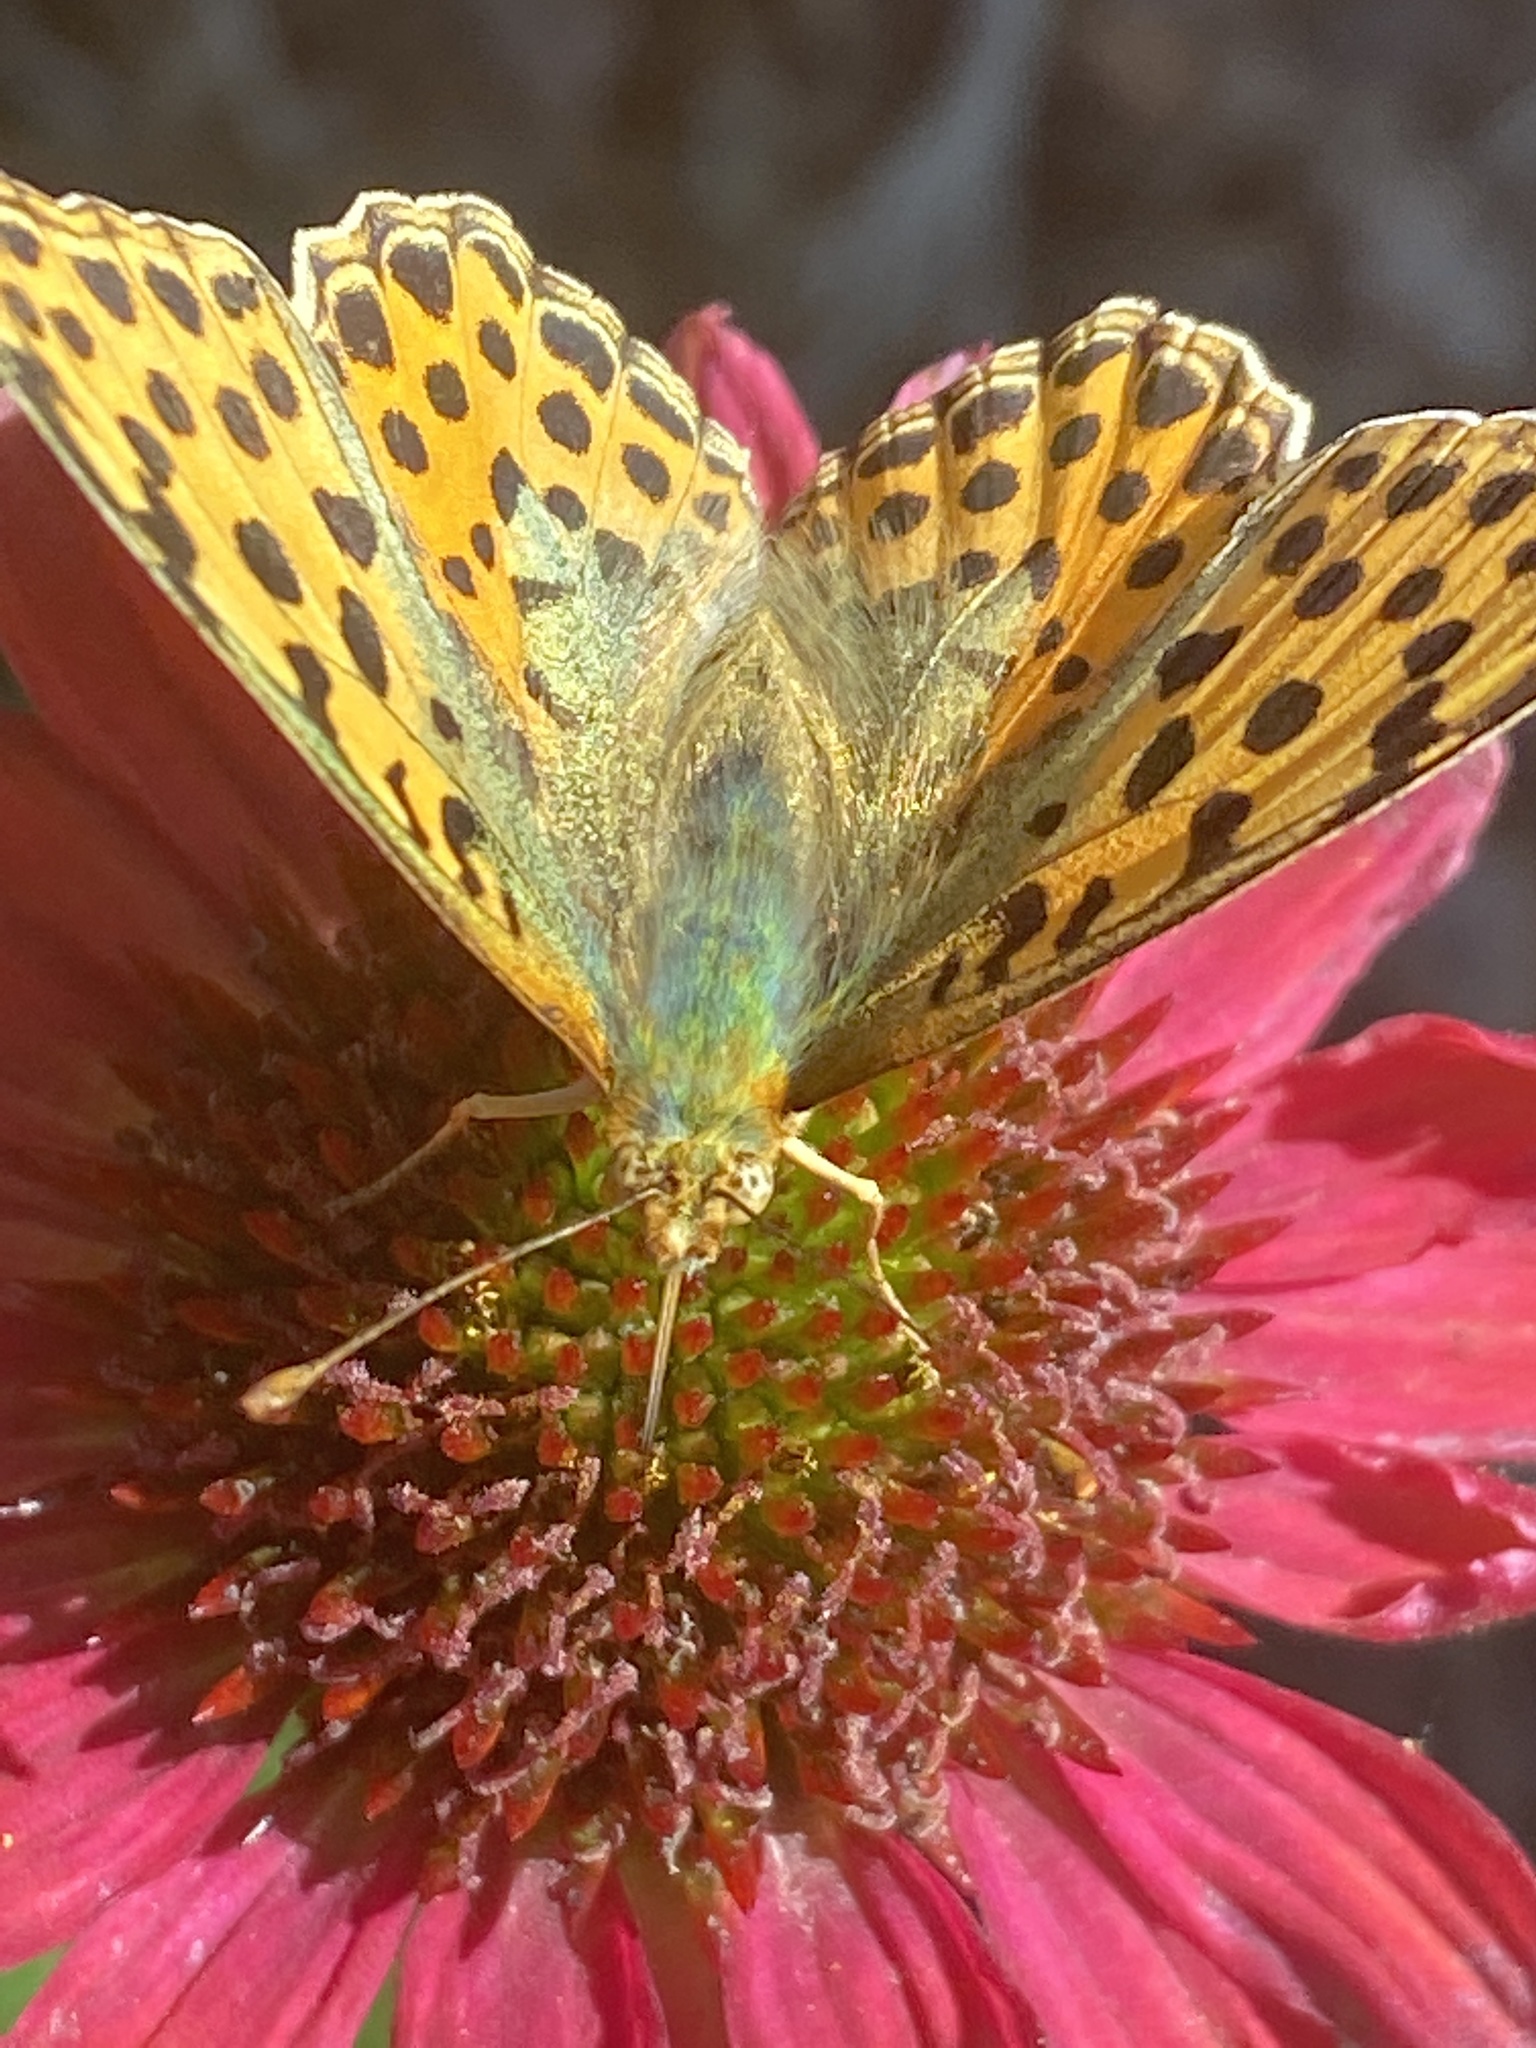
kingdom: Animalia
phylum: Arthropoda
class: Insecta
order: Lepidoptera
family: Nymphalidae
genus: Issoria
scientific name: Issoria lathonia
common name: Queen of spain fritillary
